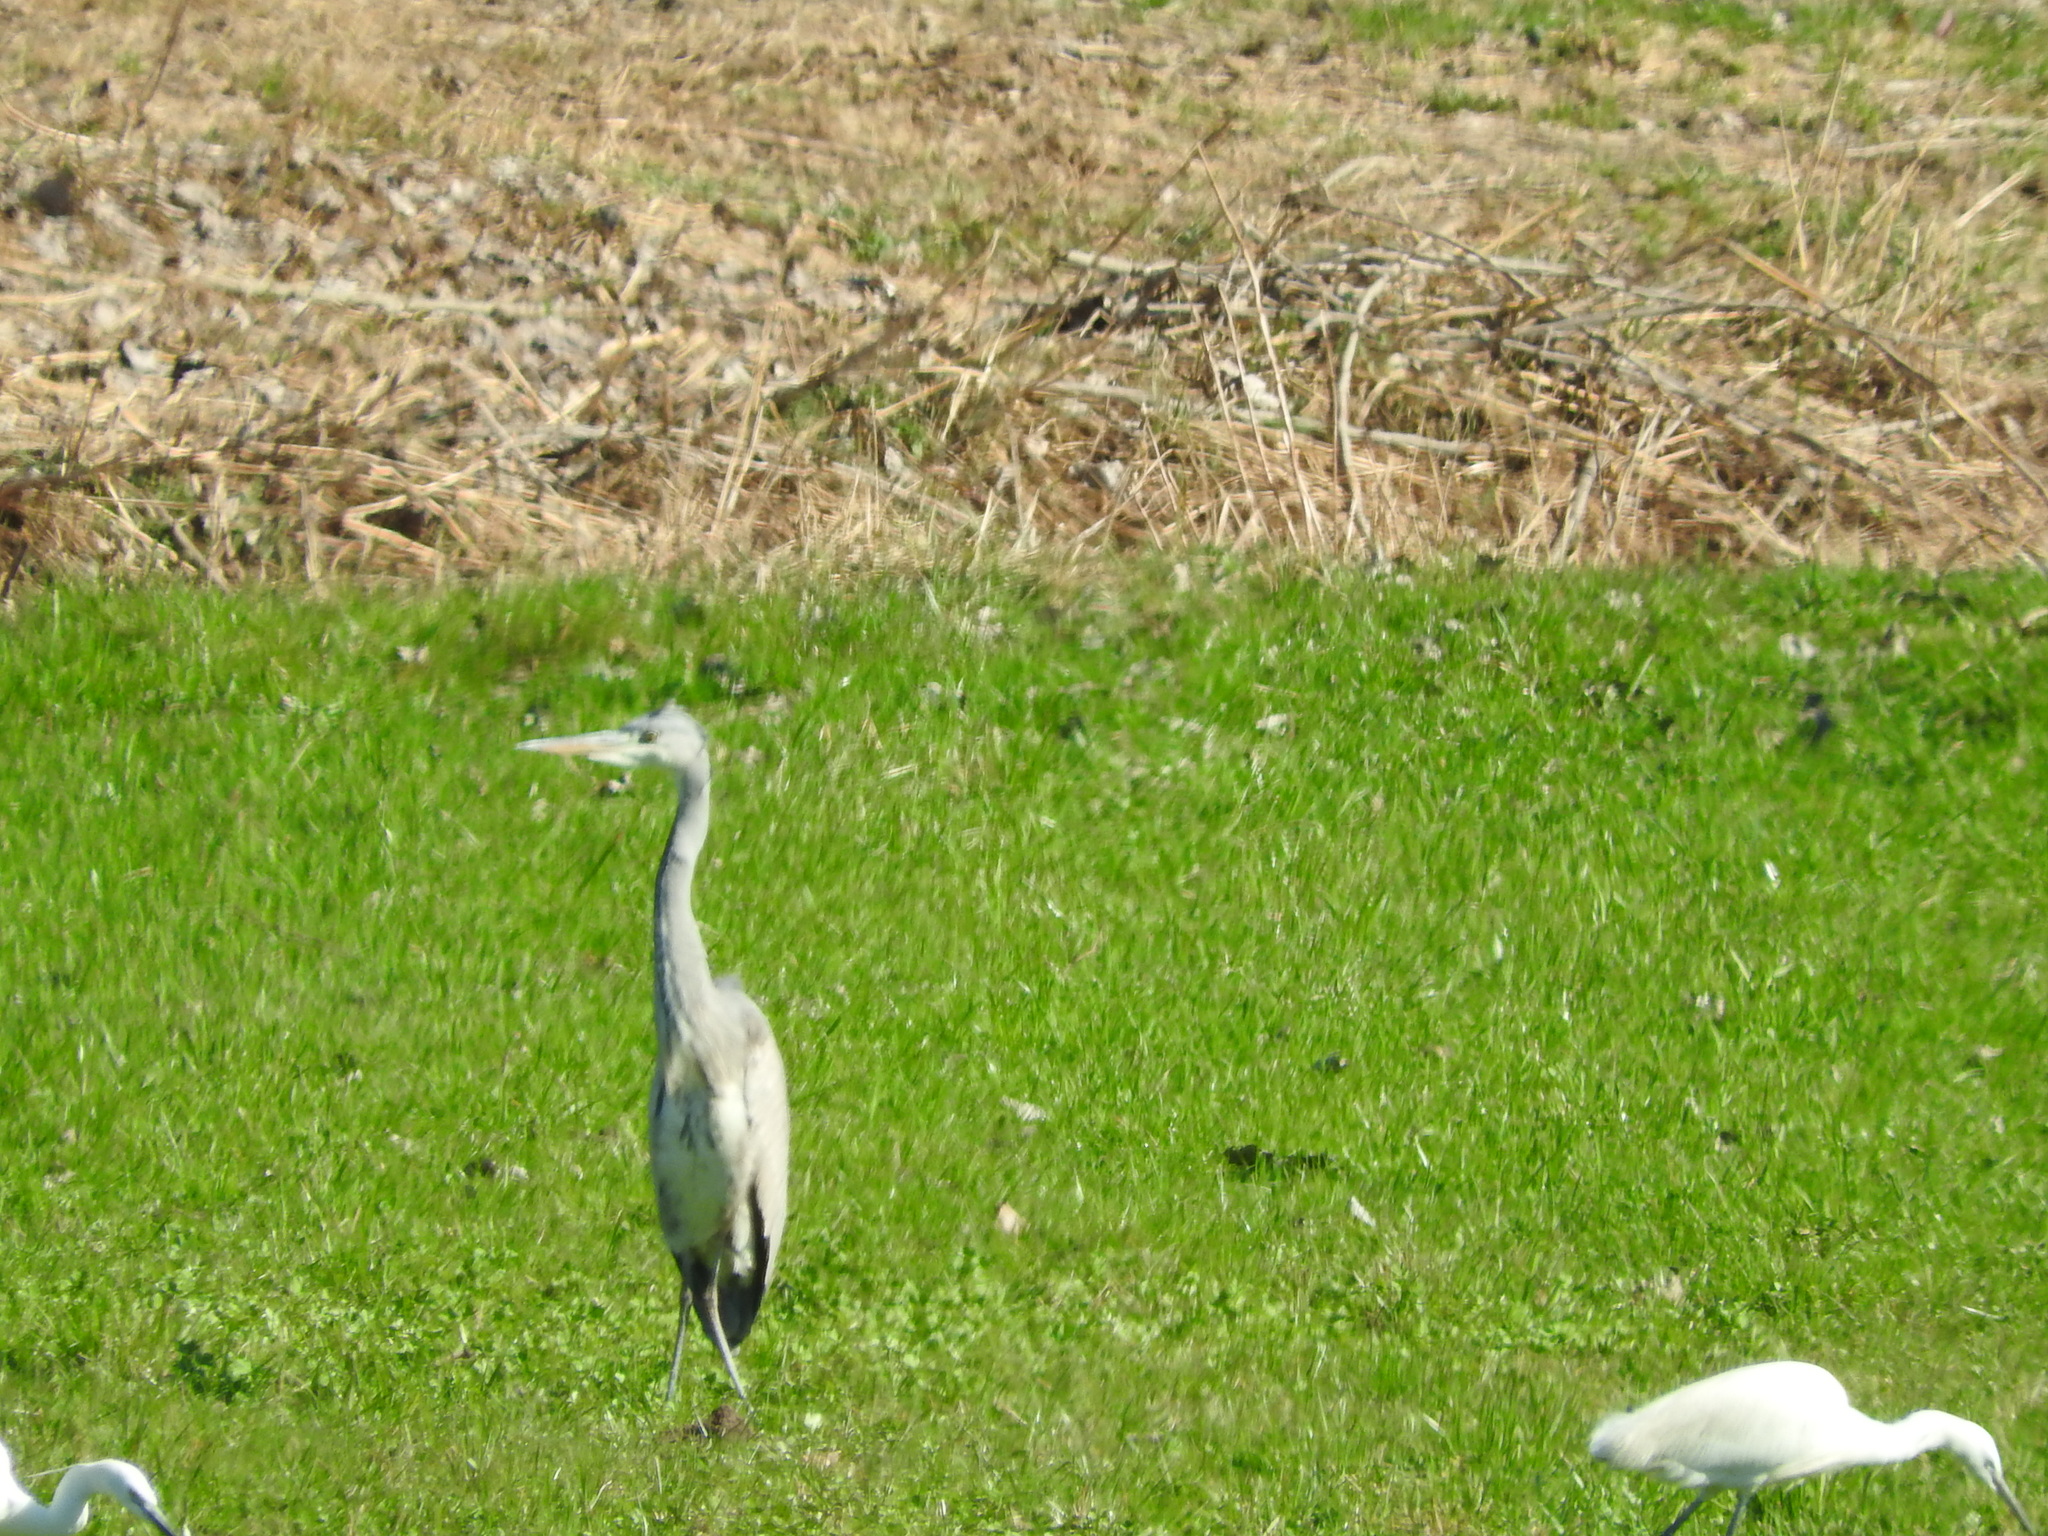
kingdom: Animalia
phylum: Chordata
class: Aves
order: Pelecaniformes
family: Ardeidae
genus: Ardea
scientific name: Ardea cinerea
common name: Grey heron
